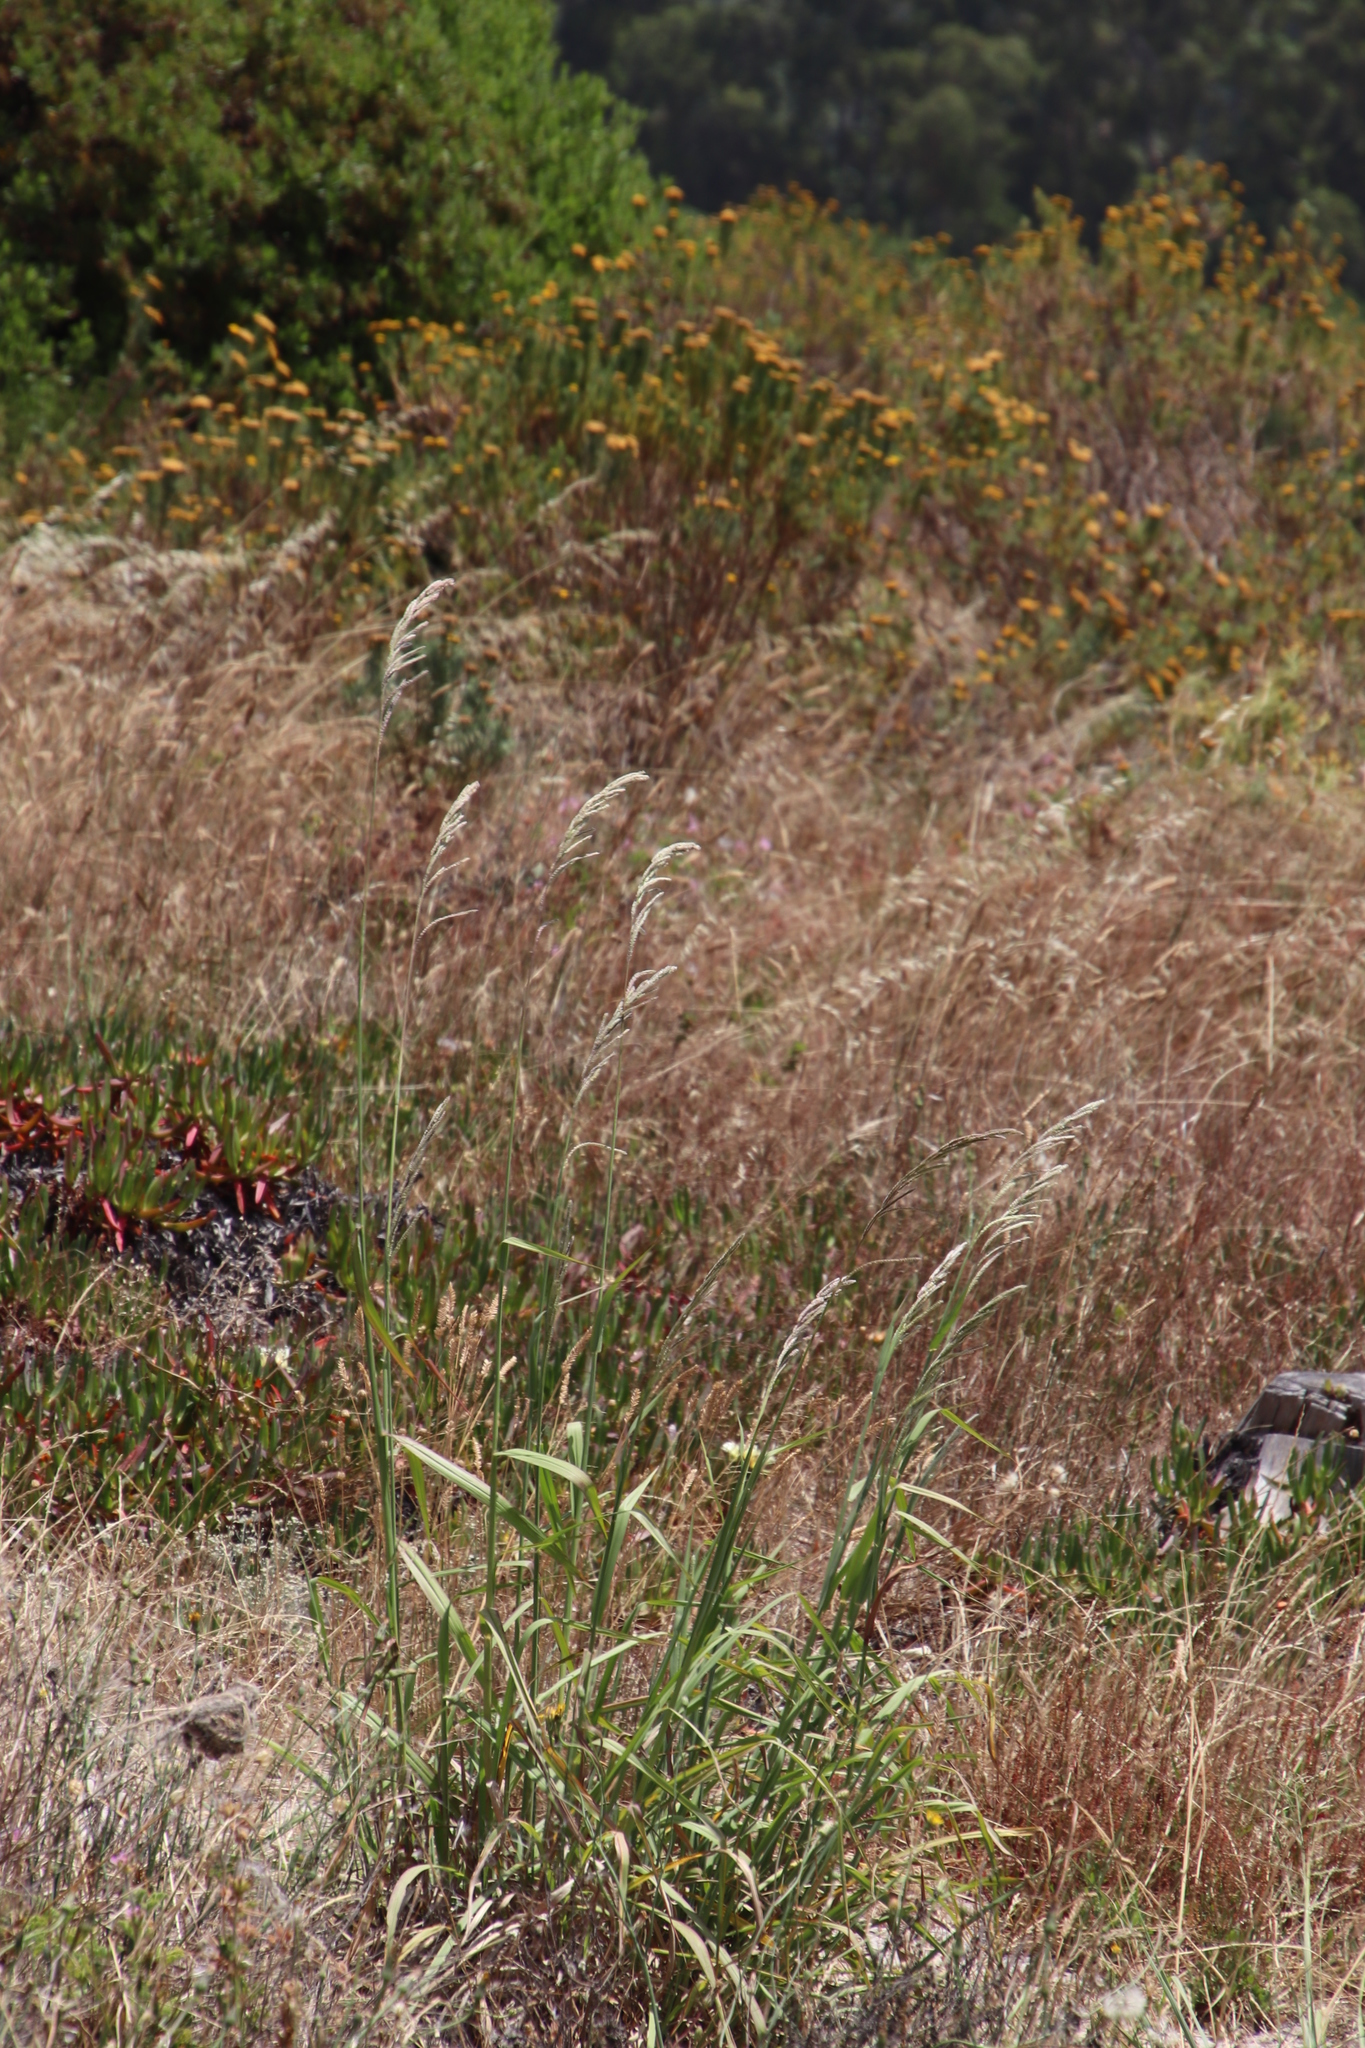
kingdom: Plantae
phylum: Tracheophyta
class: Liliopsida
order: Poales
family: Poaceae
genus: Paspalum
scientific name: Paspalum urvillei
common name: Vasey's grass
